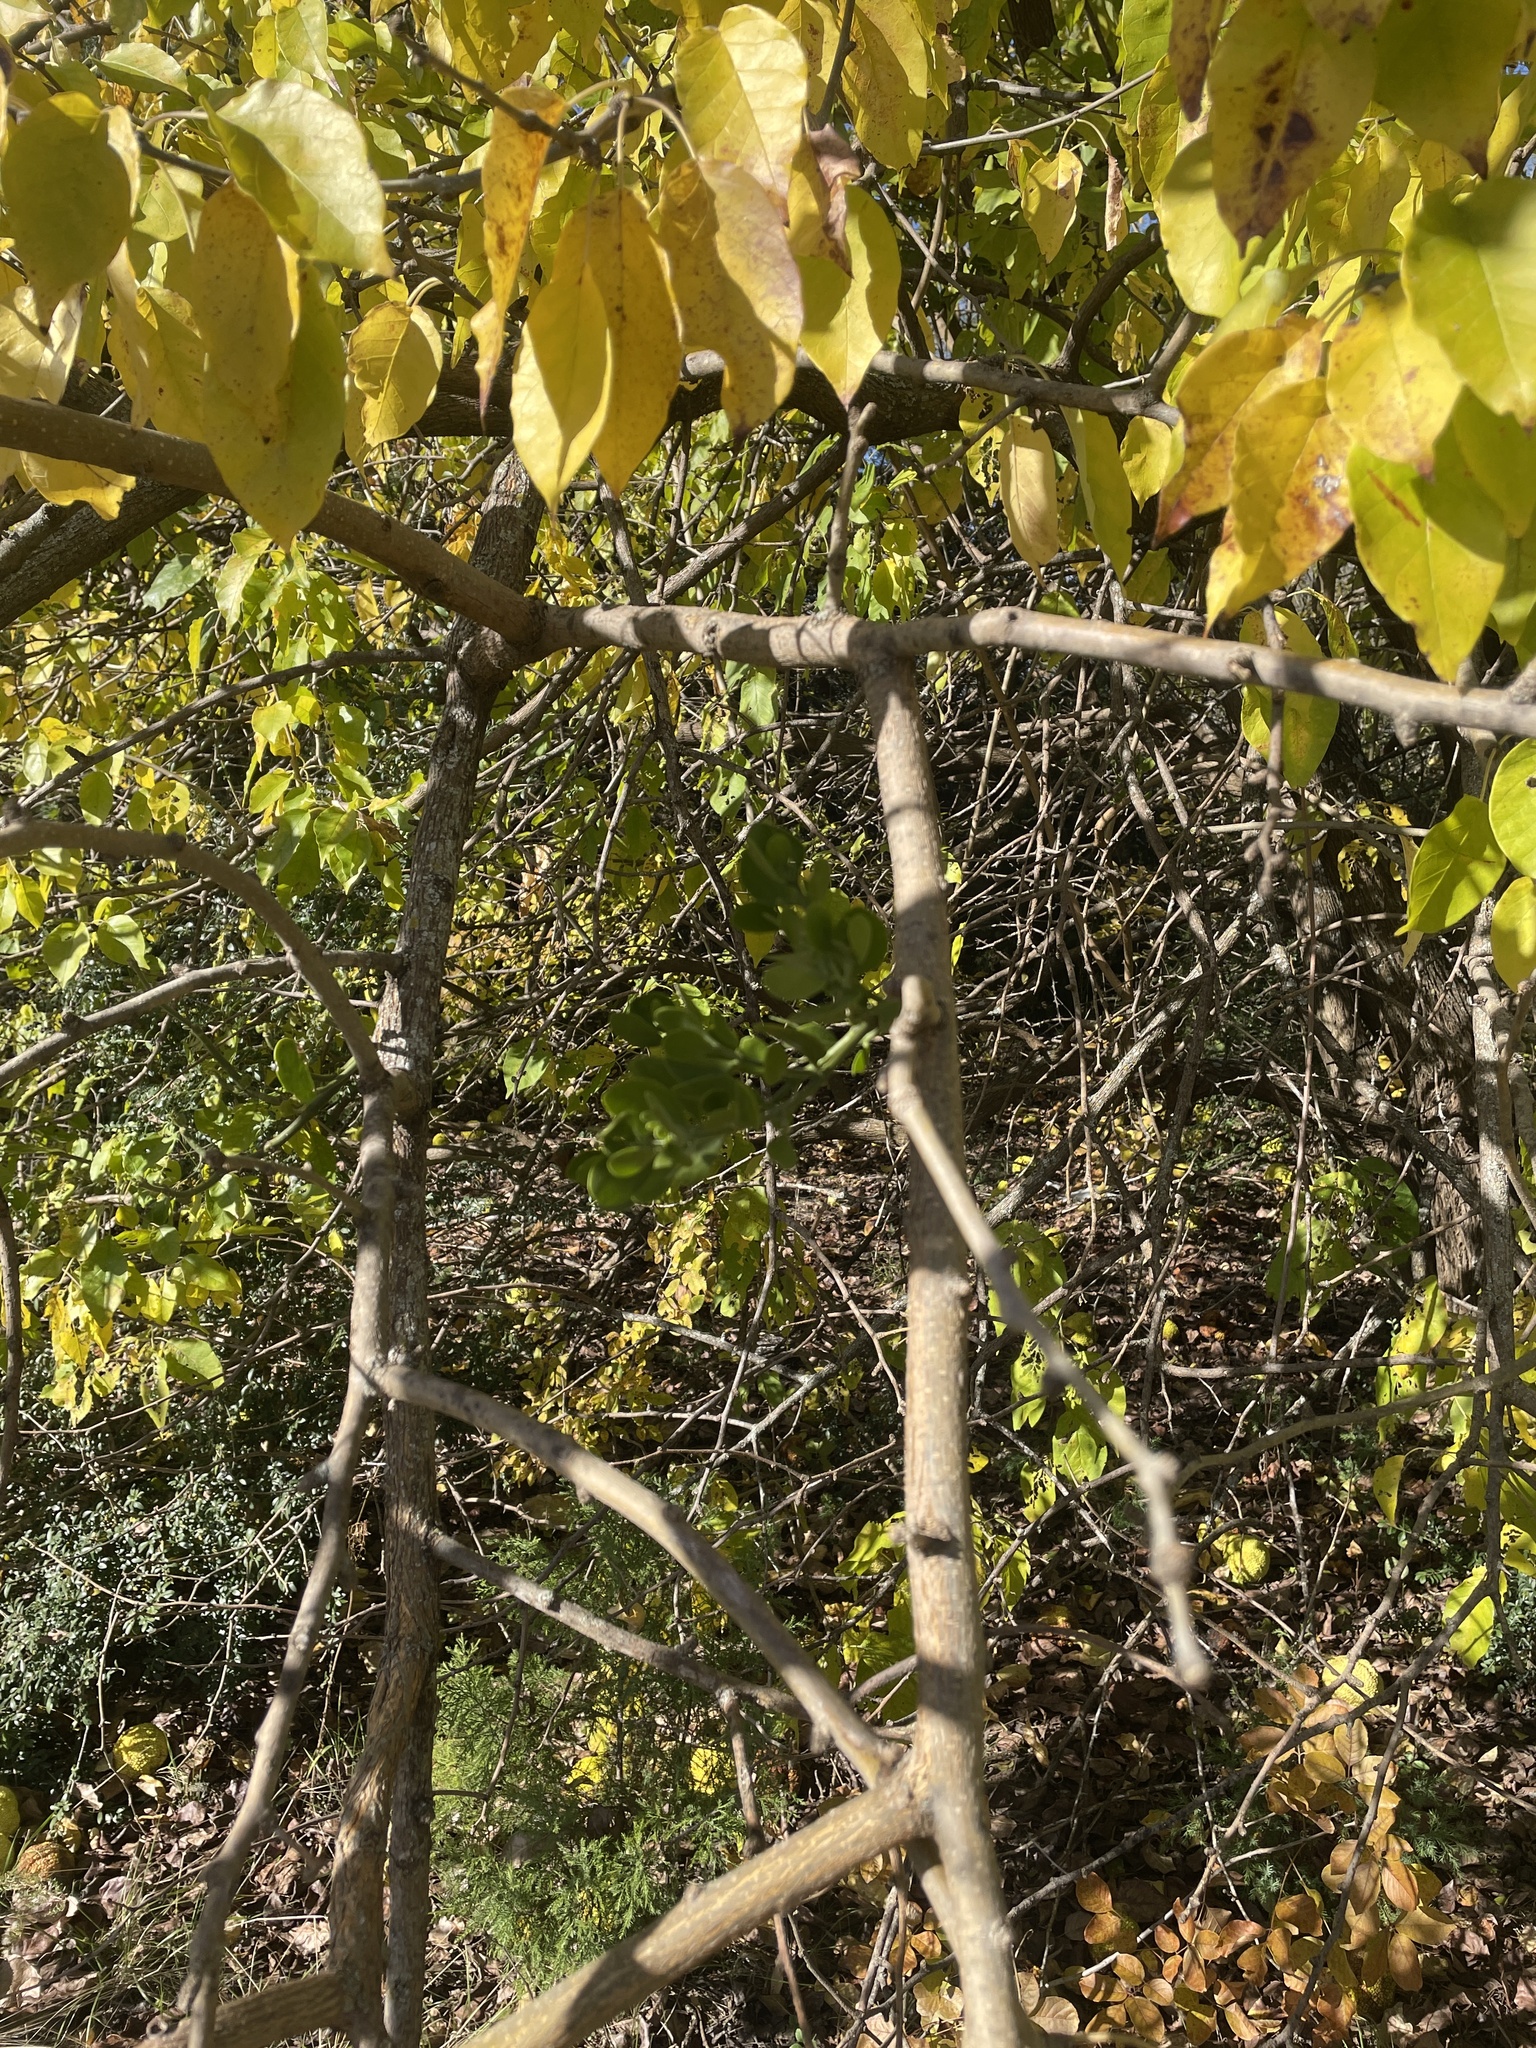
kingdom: Plantae
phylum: Tracheophyta
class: Magnoliopsida
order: Santalales
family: Viscaceae
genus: Phoradendron
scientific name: Phoradendron leucarpum
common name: Pacific mistletoe
